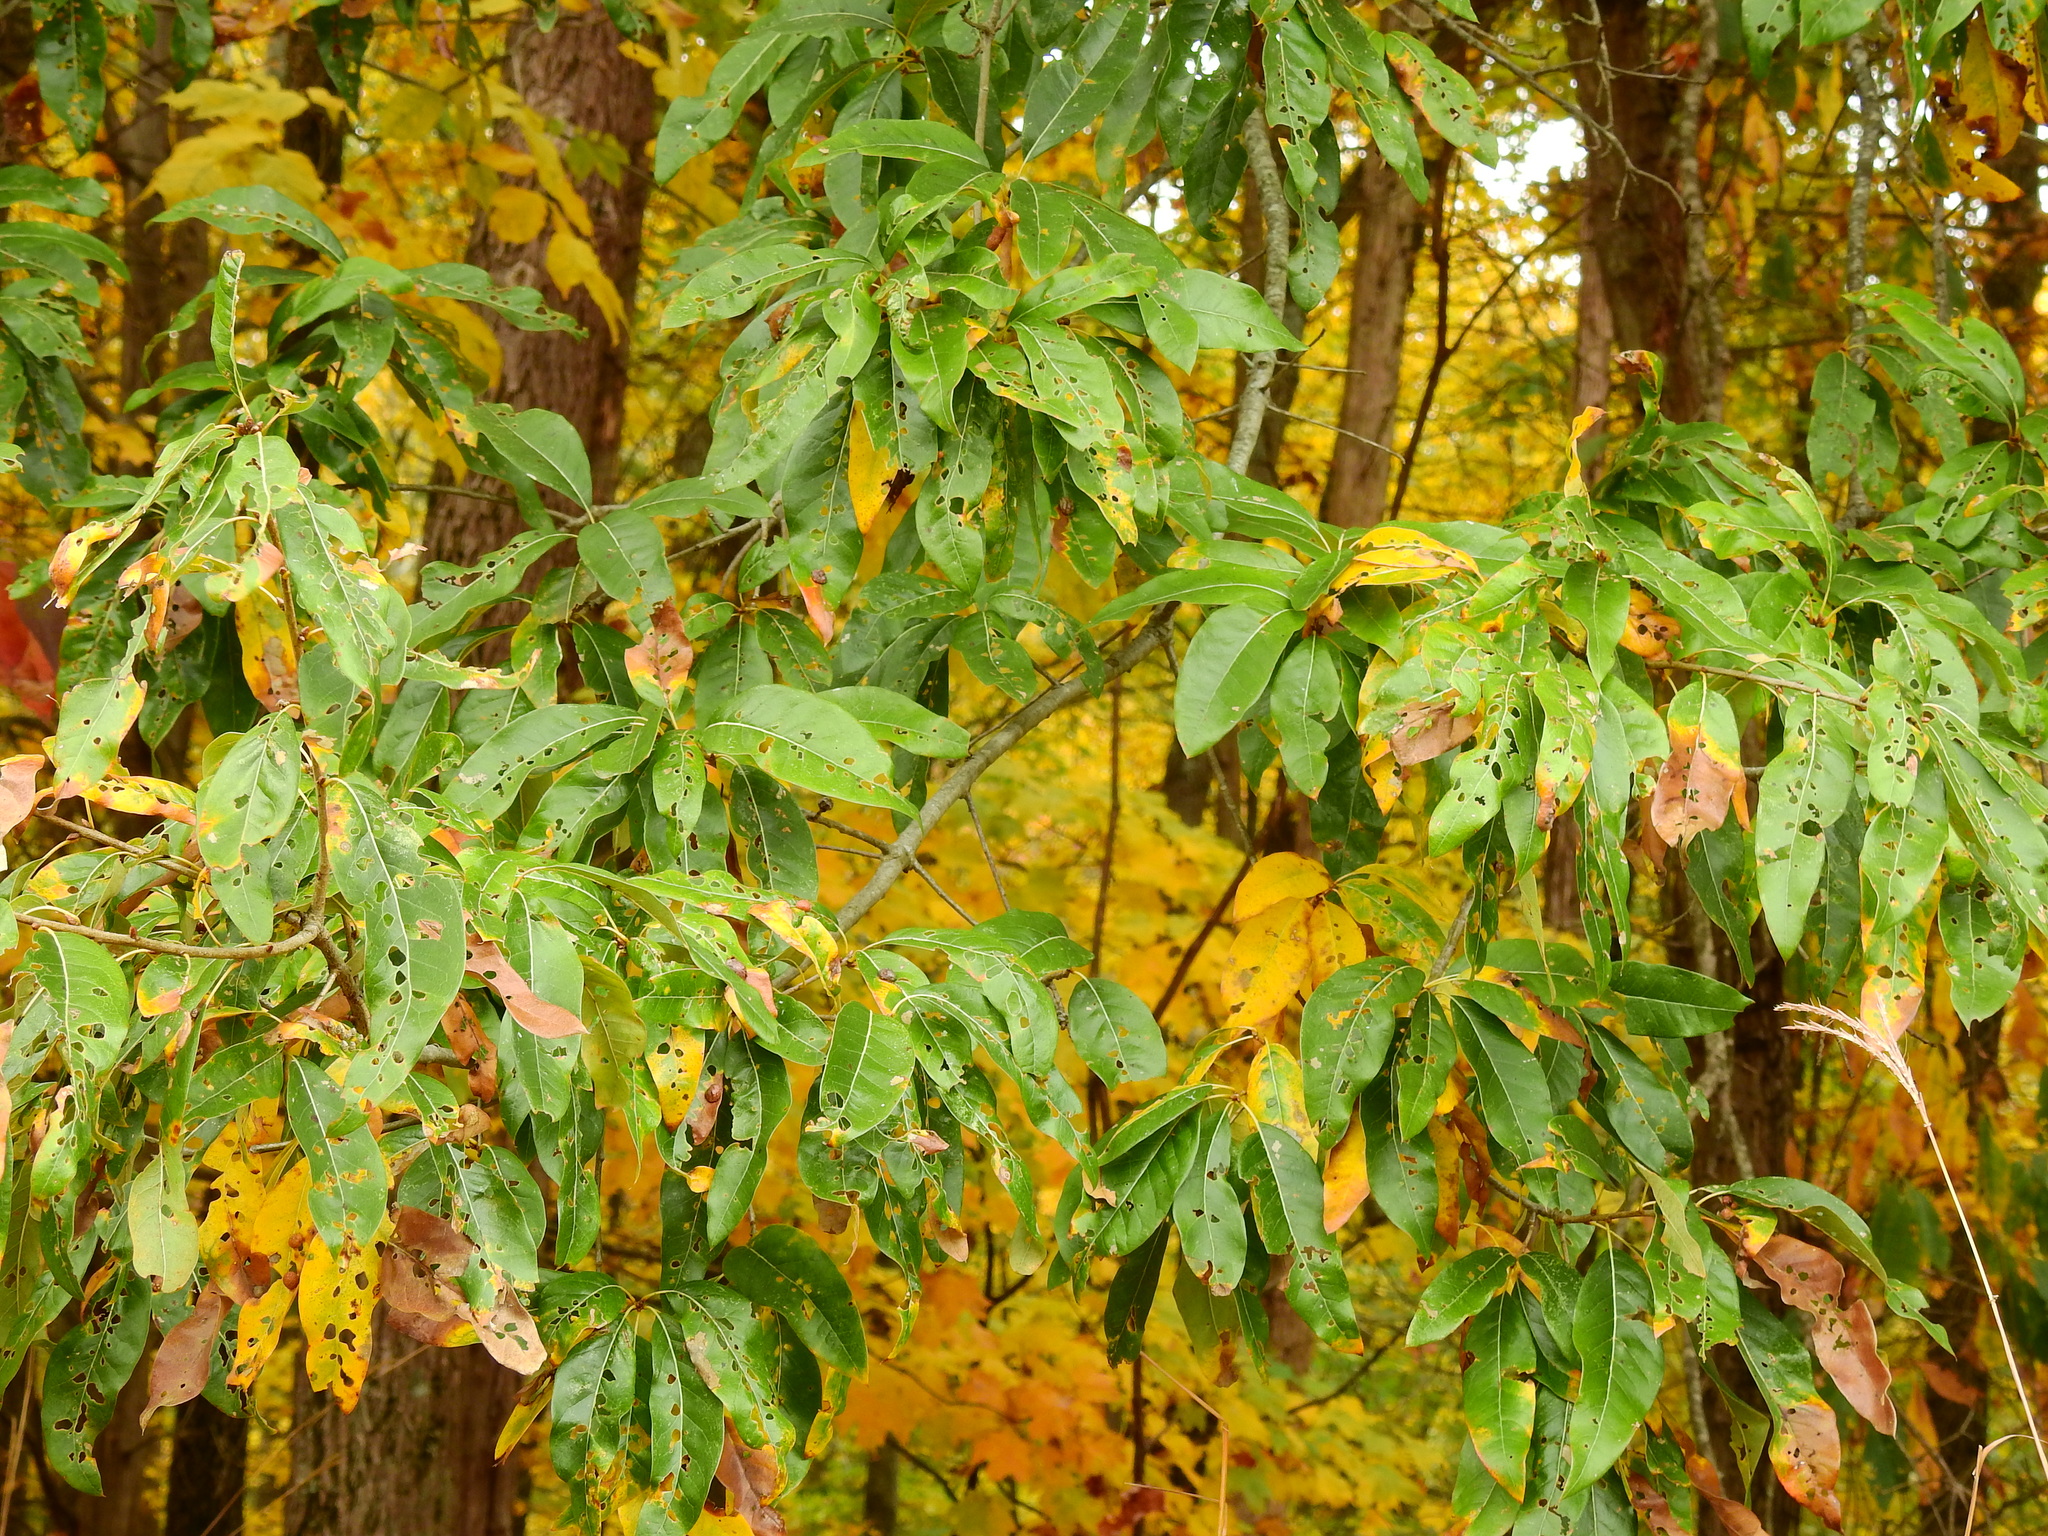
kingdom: Plantae
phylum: Tracheophyta
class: Magnoliopsida
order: Fagales
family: Fagaceae
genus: Quercus
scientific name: Quercus imbricaria
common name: Shingle oak
